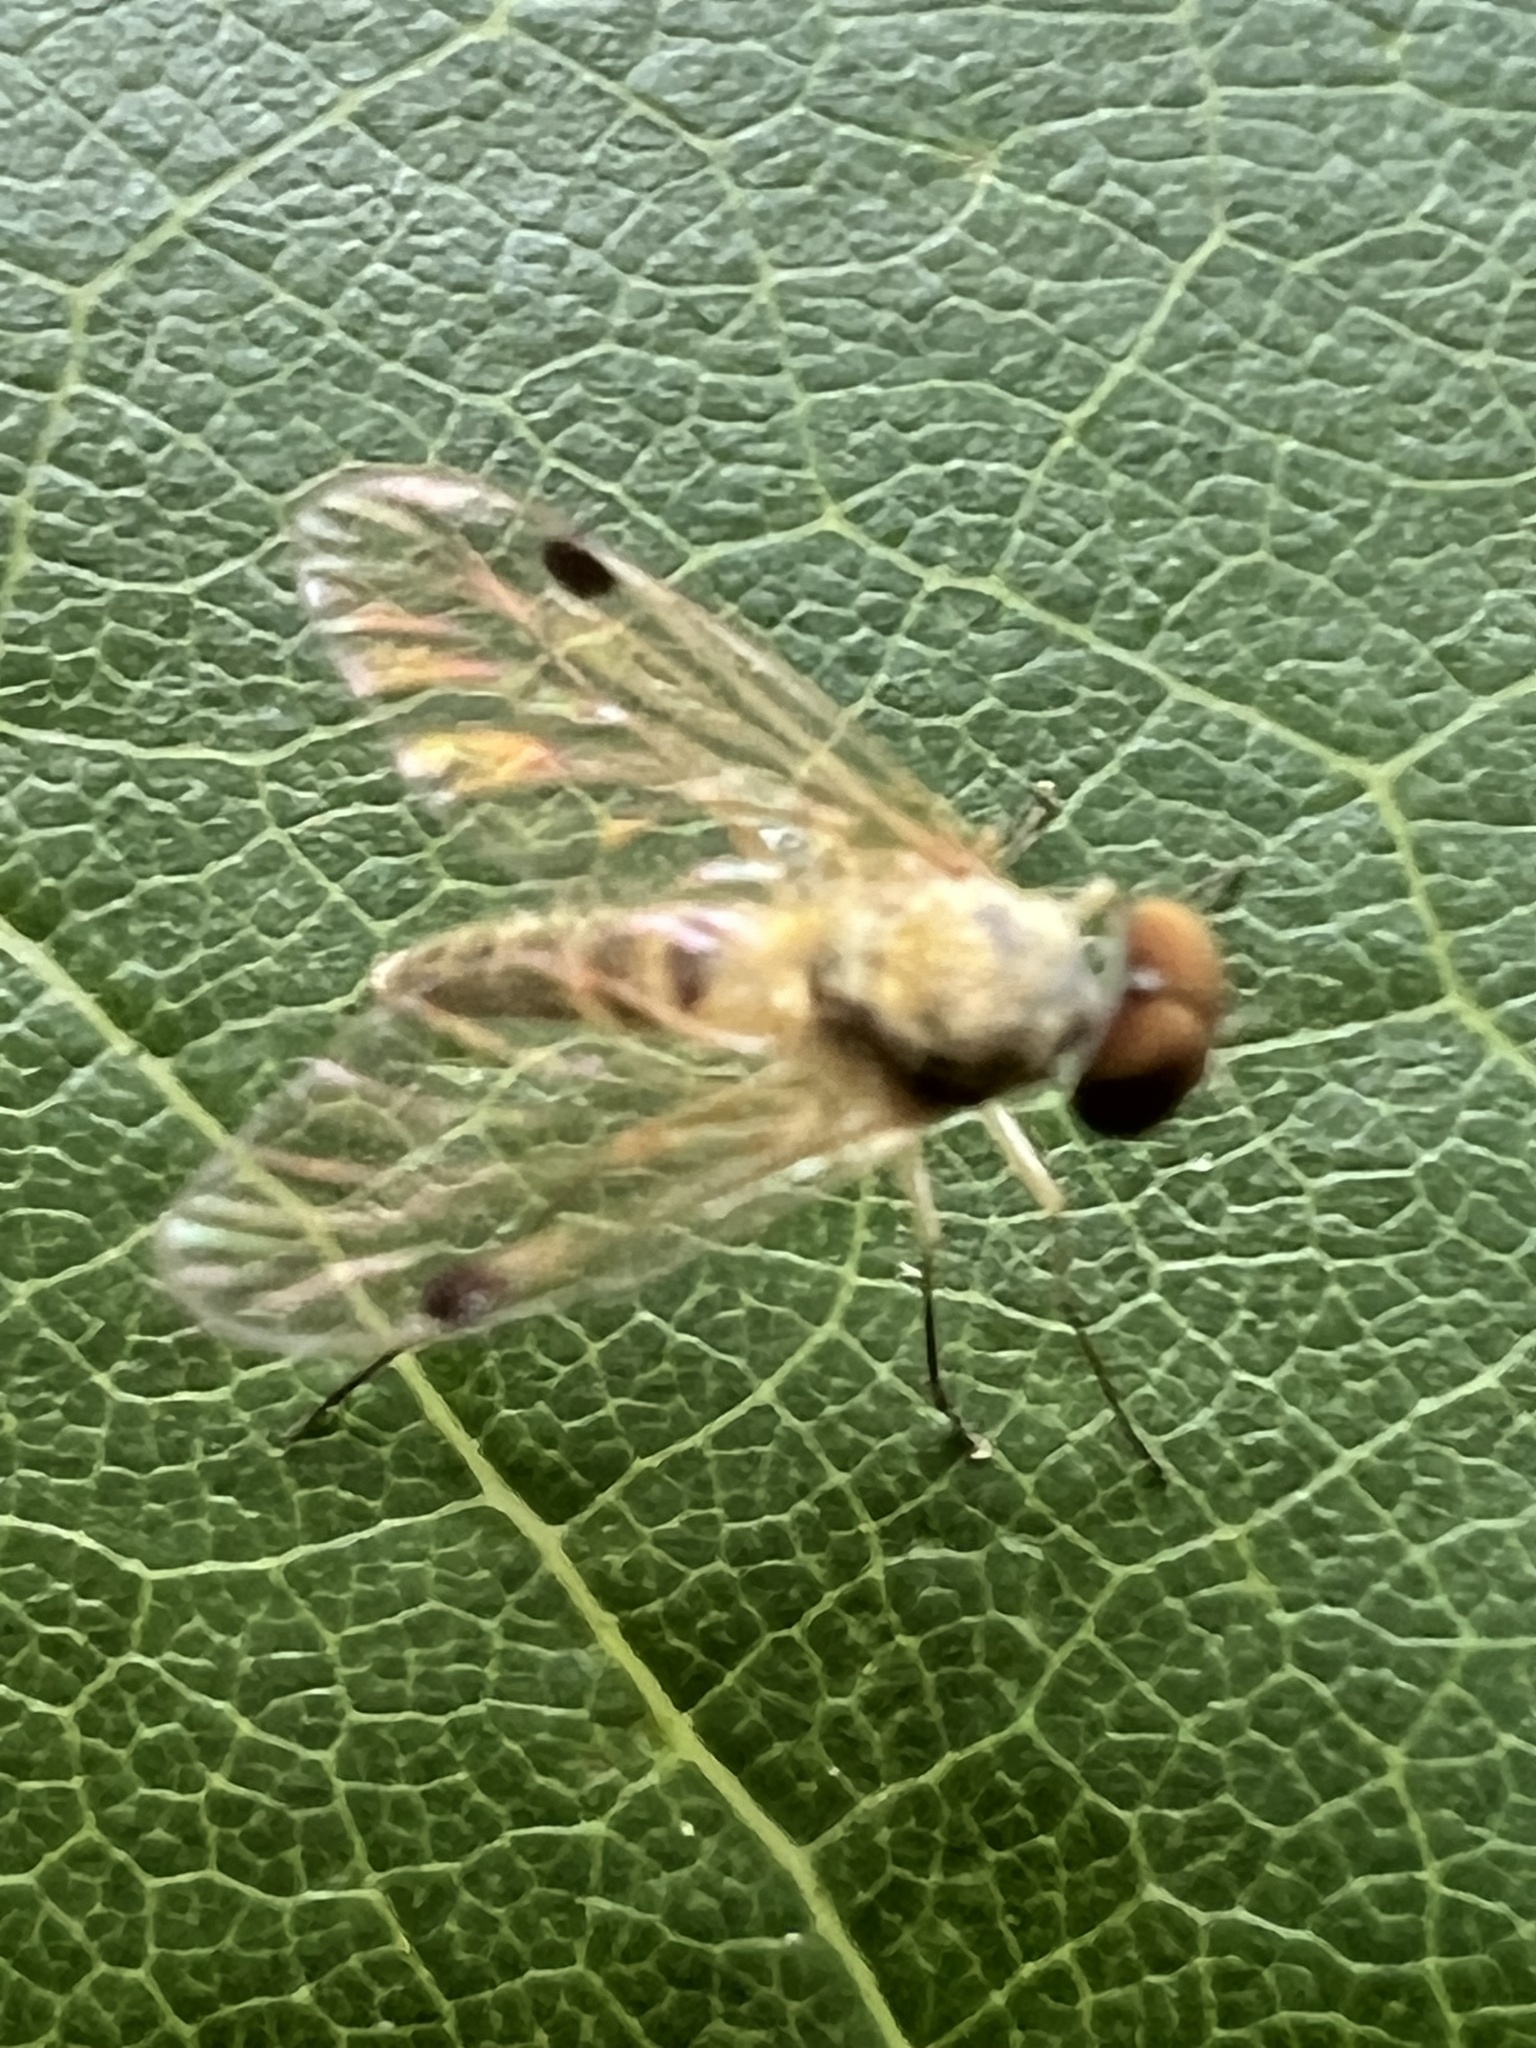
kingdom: Animalia
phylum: Arthropoda
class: Insecta
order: Diptera
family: Rhagionidae
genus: Chrysopilus
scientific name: Chrysopilus modestus
